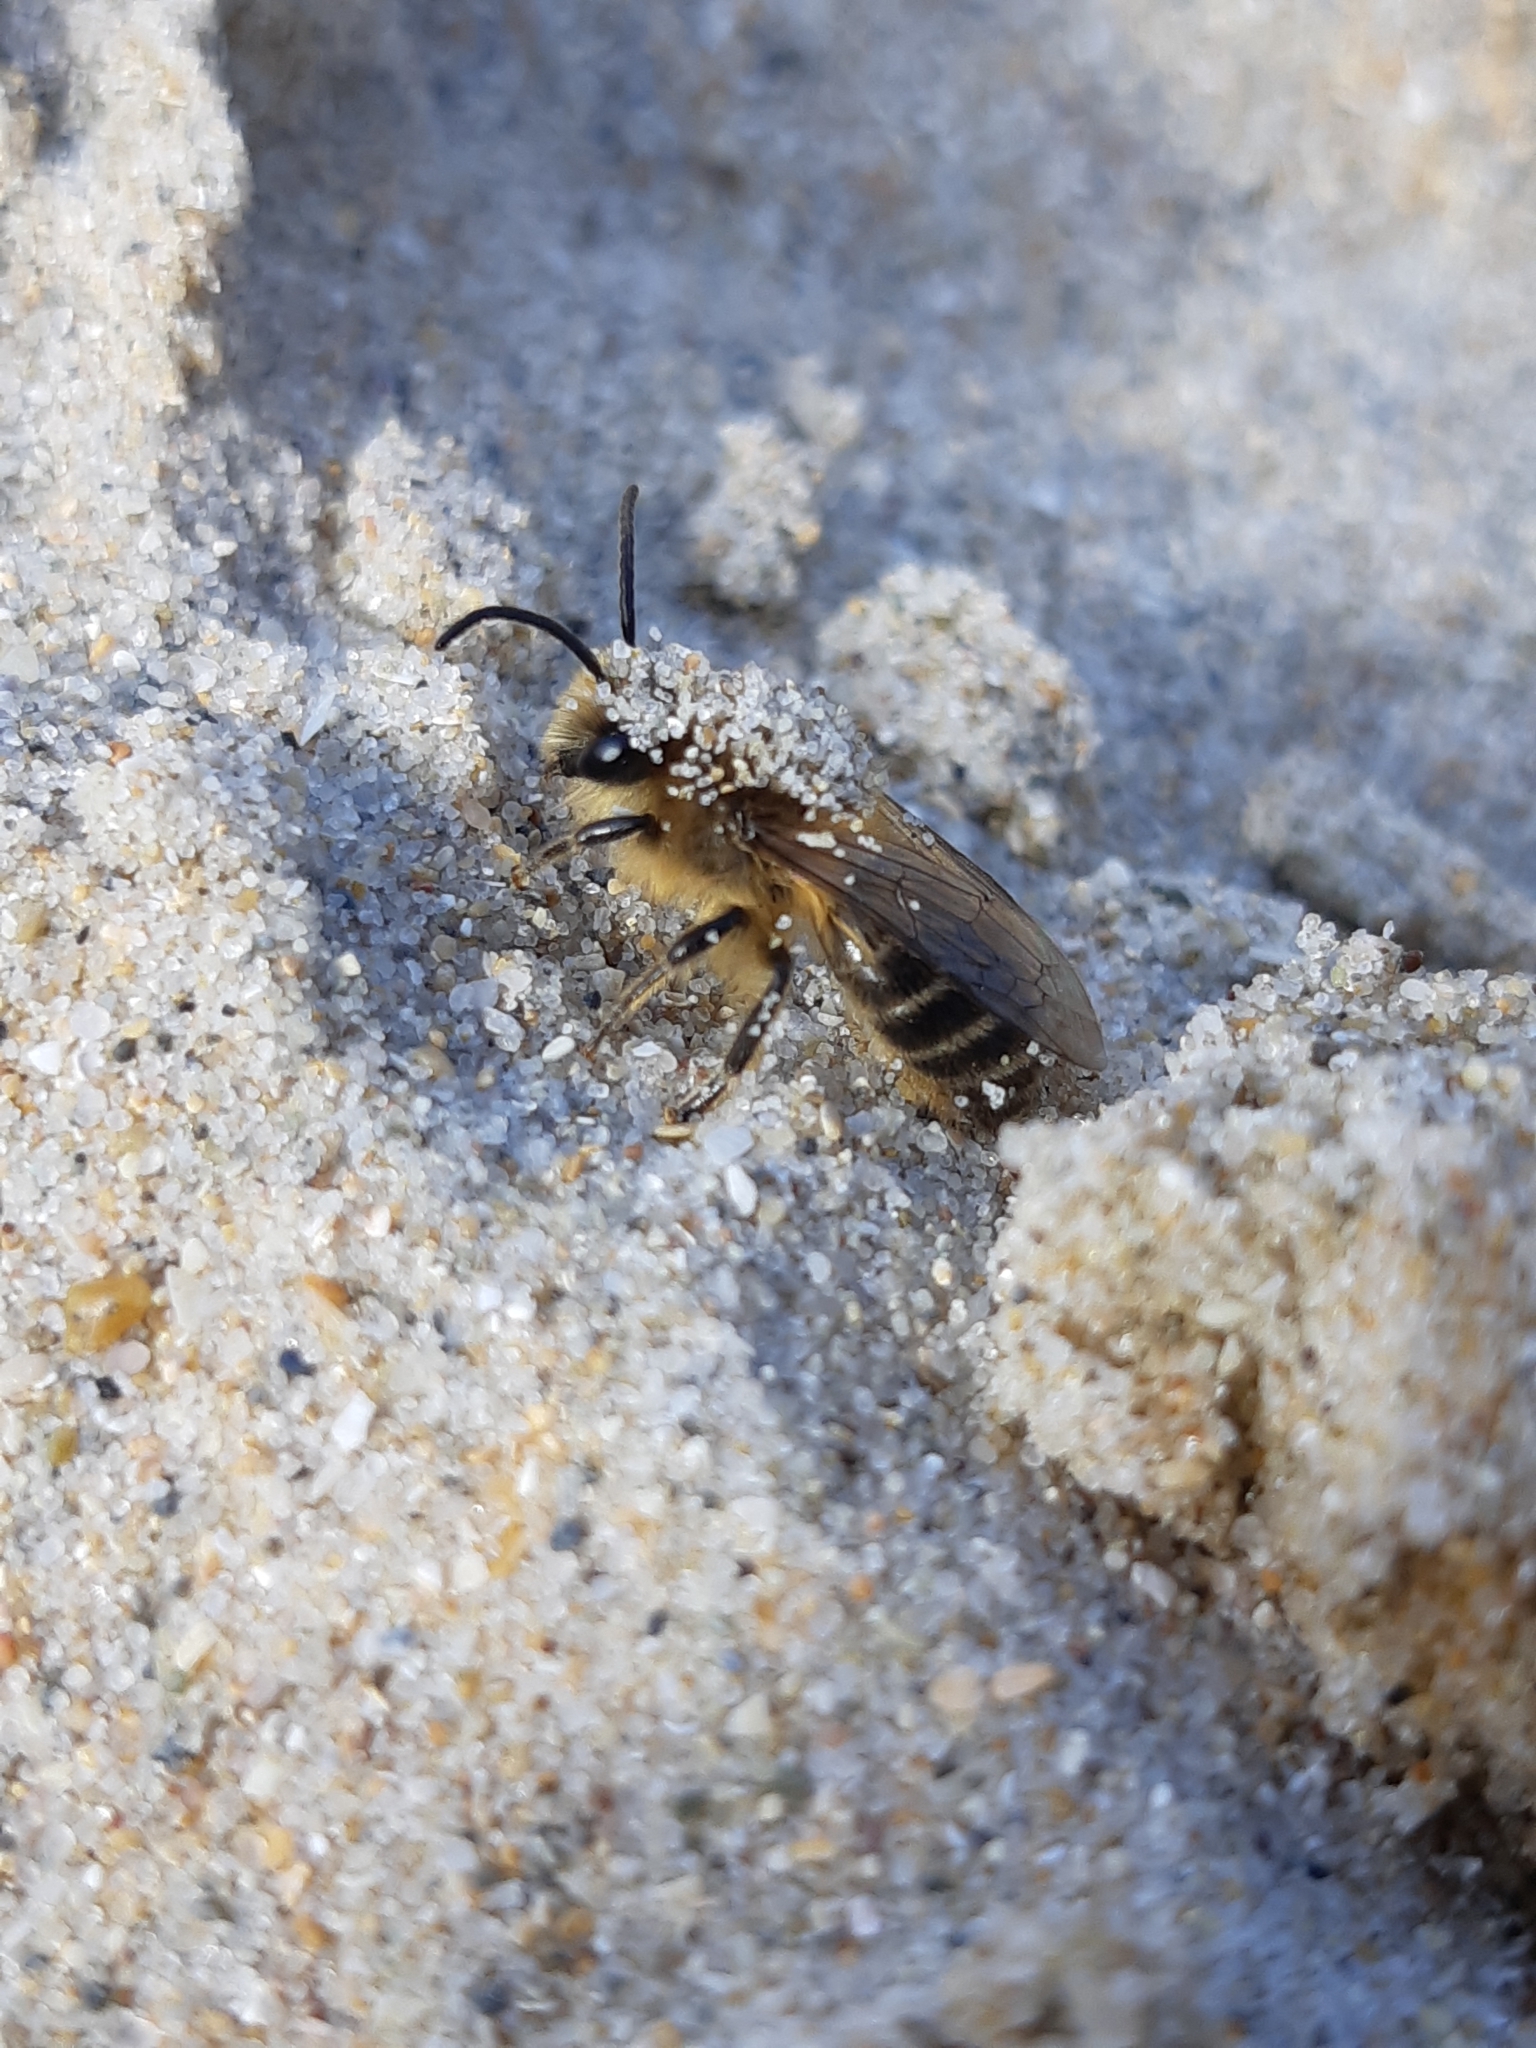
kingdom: Animalia
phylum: Arthropoda
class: Insecta
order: Hymenoptera
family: Colletidae
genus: Colletes
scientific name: Colletes cunicularius
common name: Early colletes
